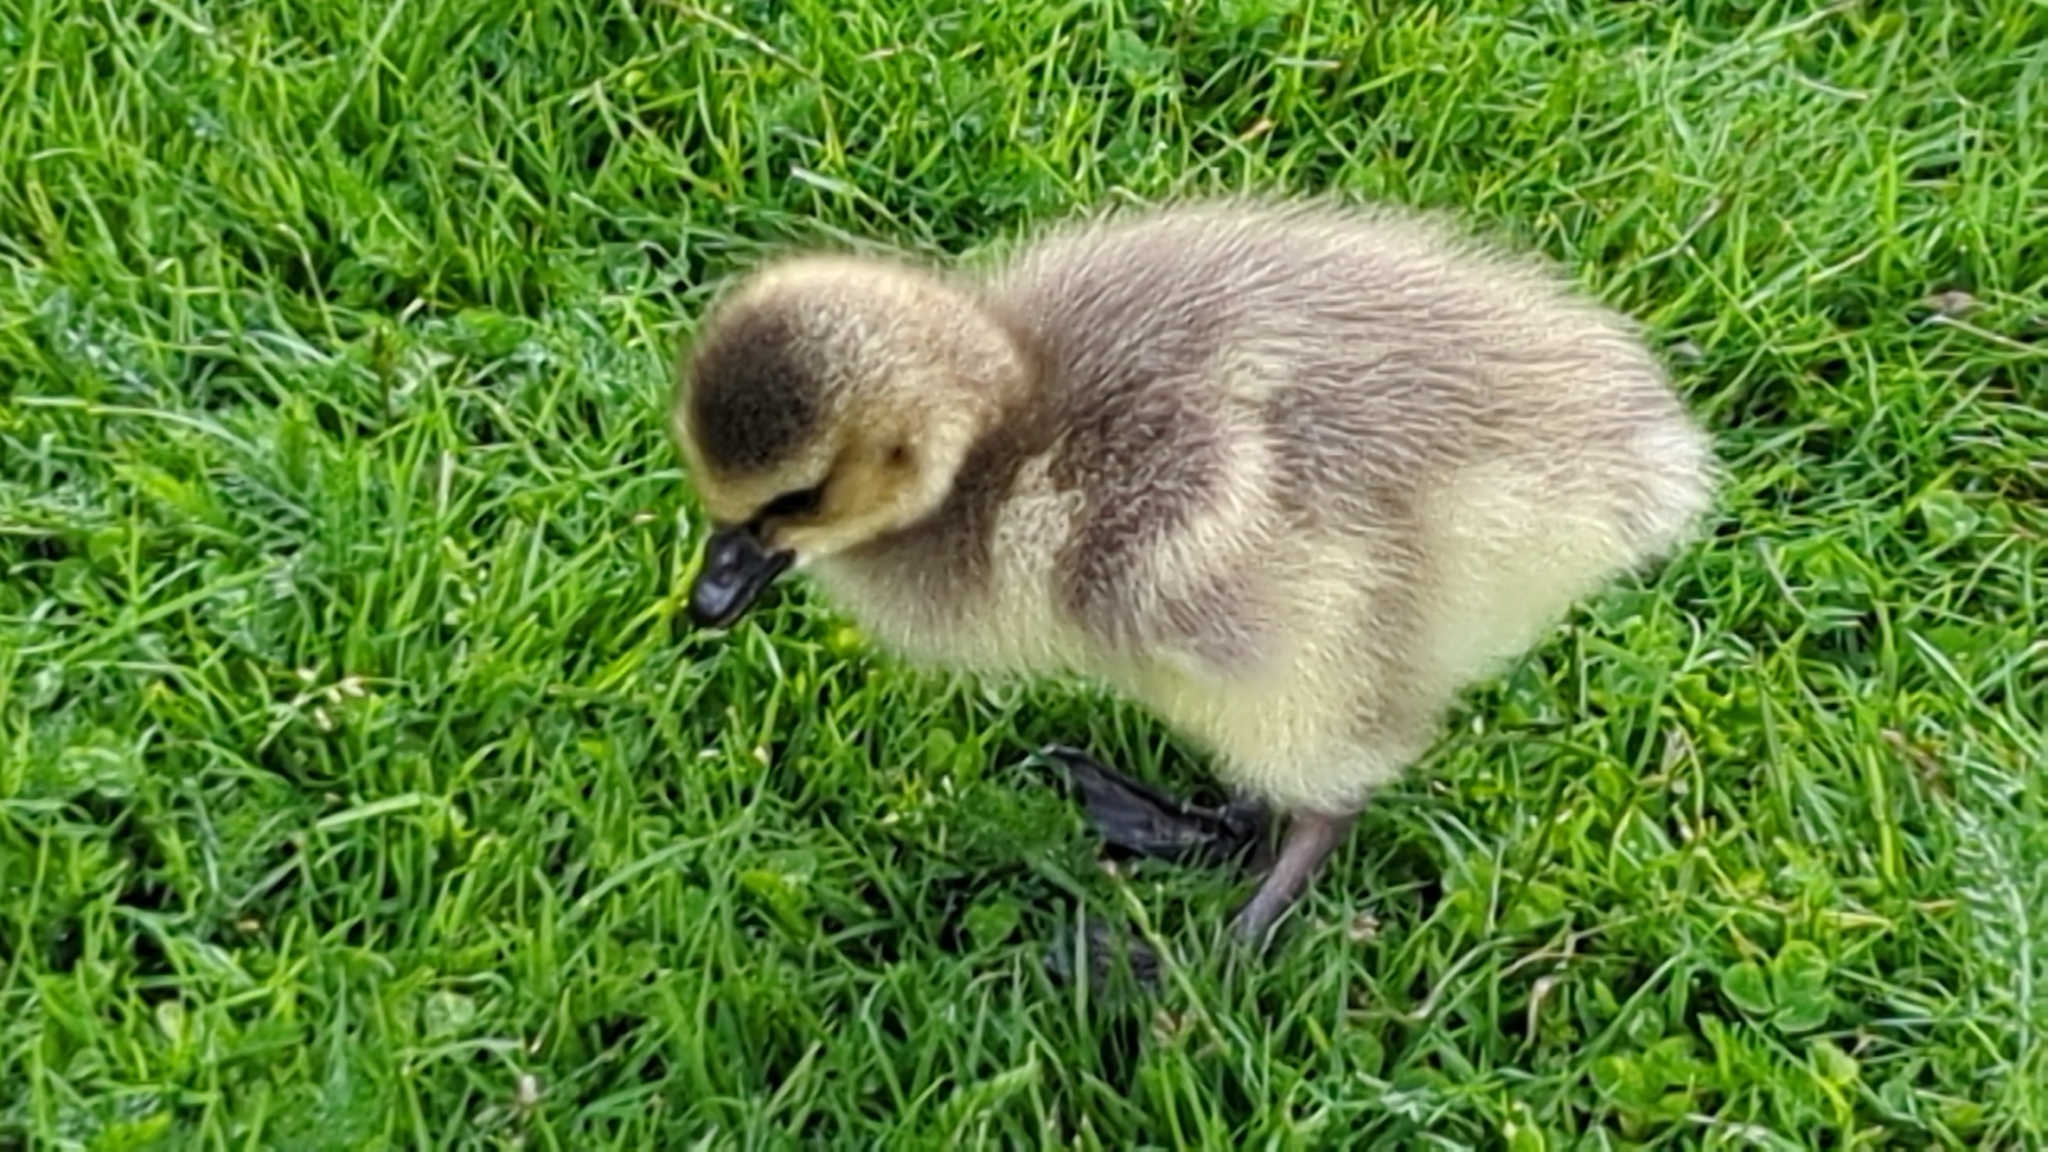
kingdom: Animalia
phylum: Chordata
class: Aves
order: Anseriformes
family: Anatidae
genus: Branta
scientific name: Branta canadensis
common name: Canada goose
